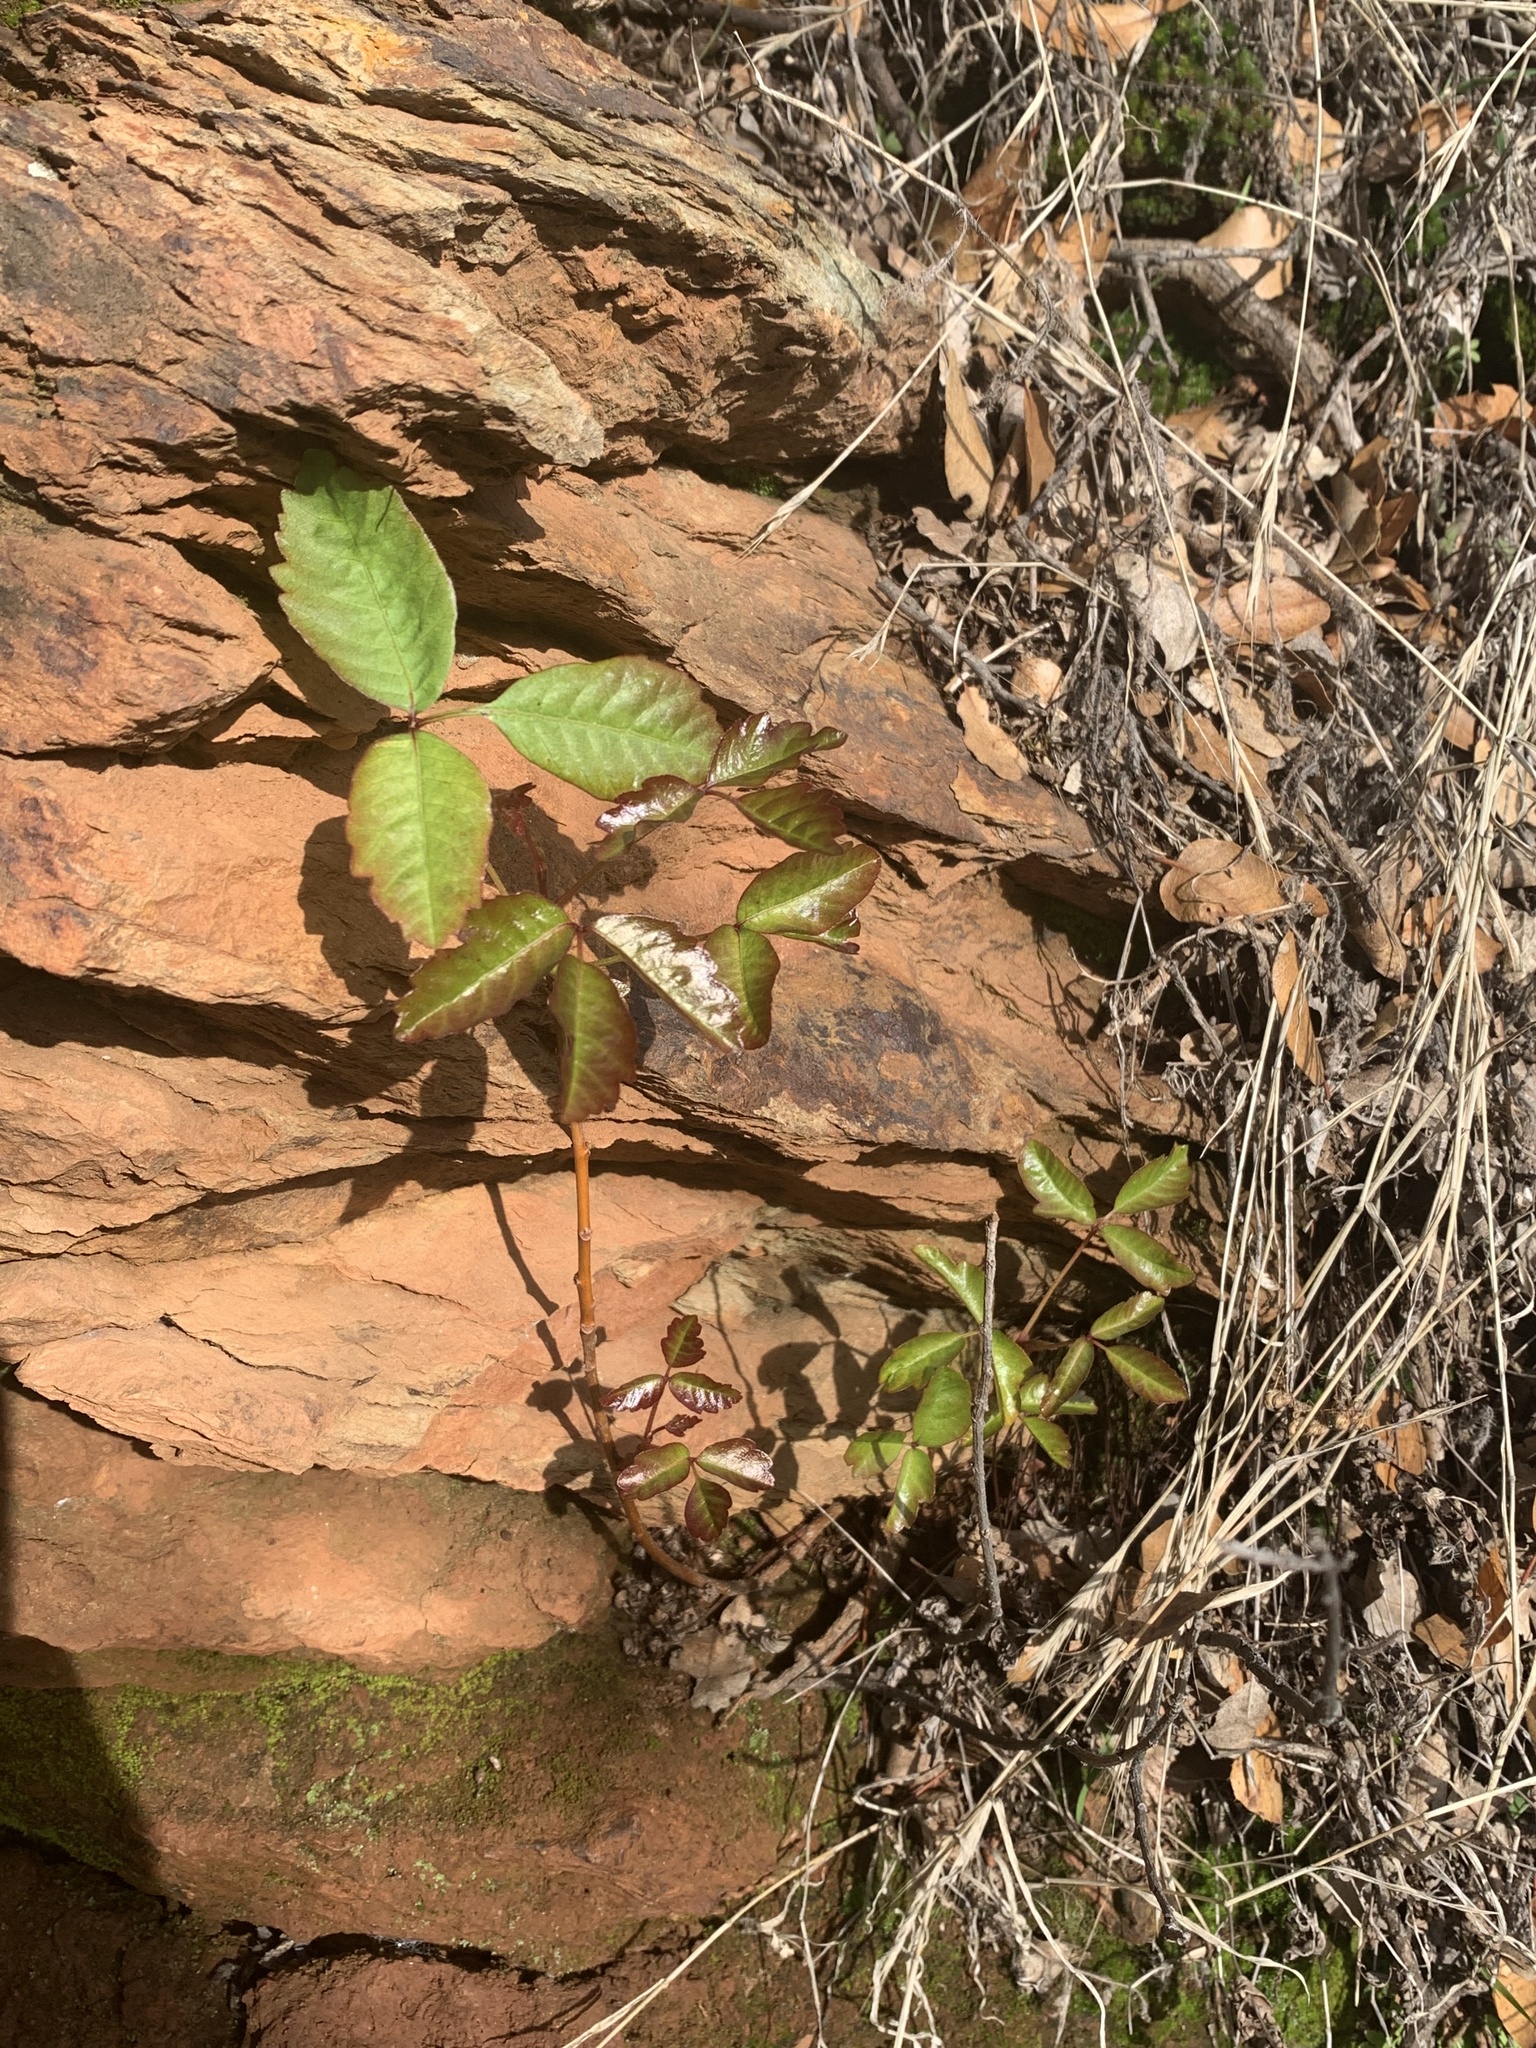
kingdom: Plantae
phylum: Tracheophyta
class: Magnoliopsida
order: Sapindales
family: Anacardiaceae
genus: Toxicodendron
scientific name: Toxicodendron diversilobum
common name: Pacific poison-oak
